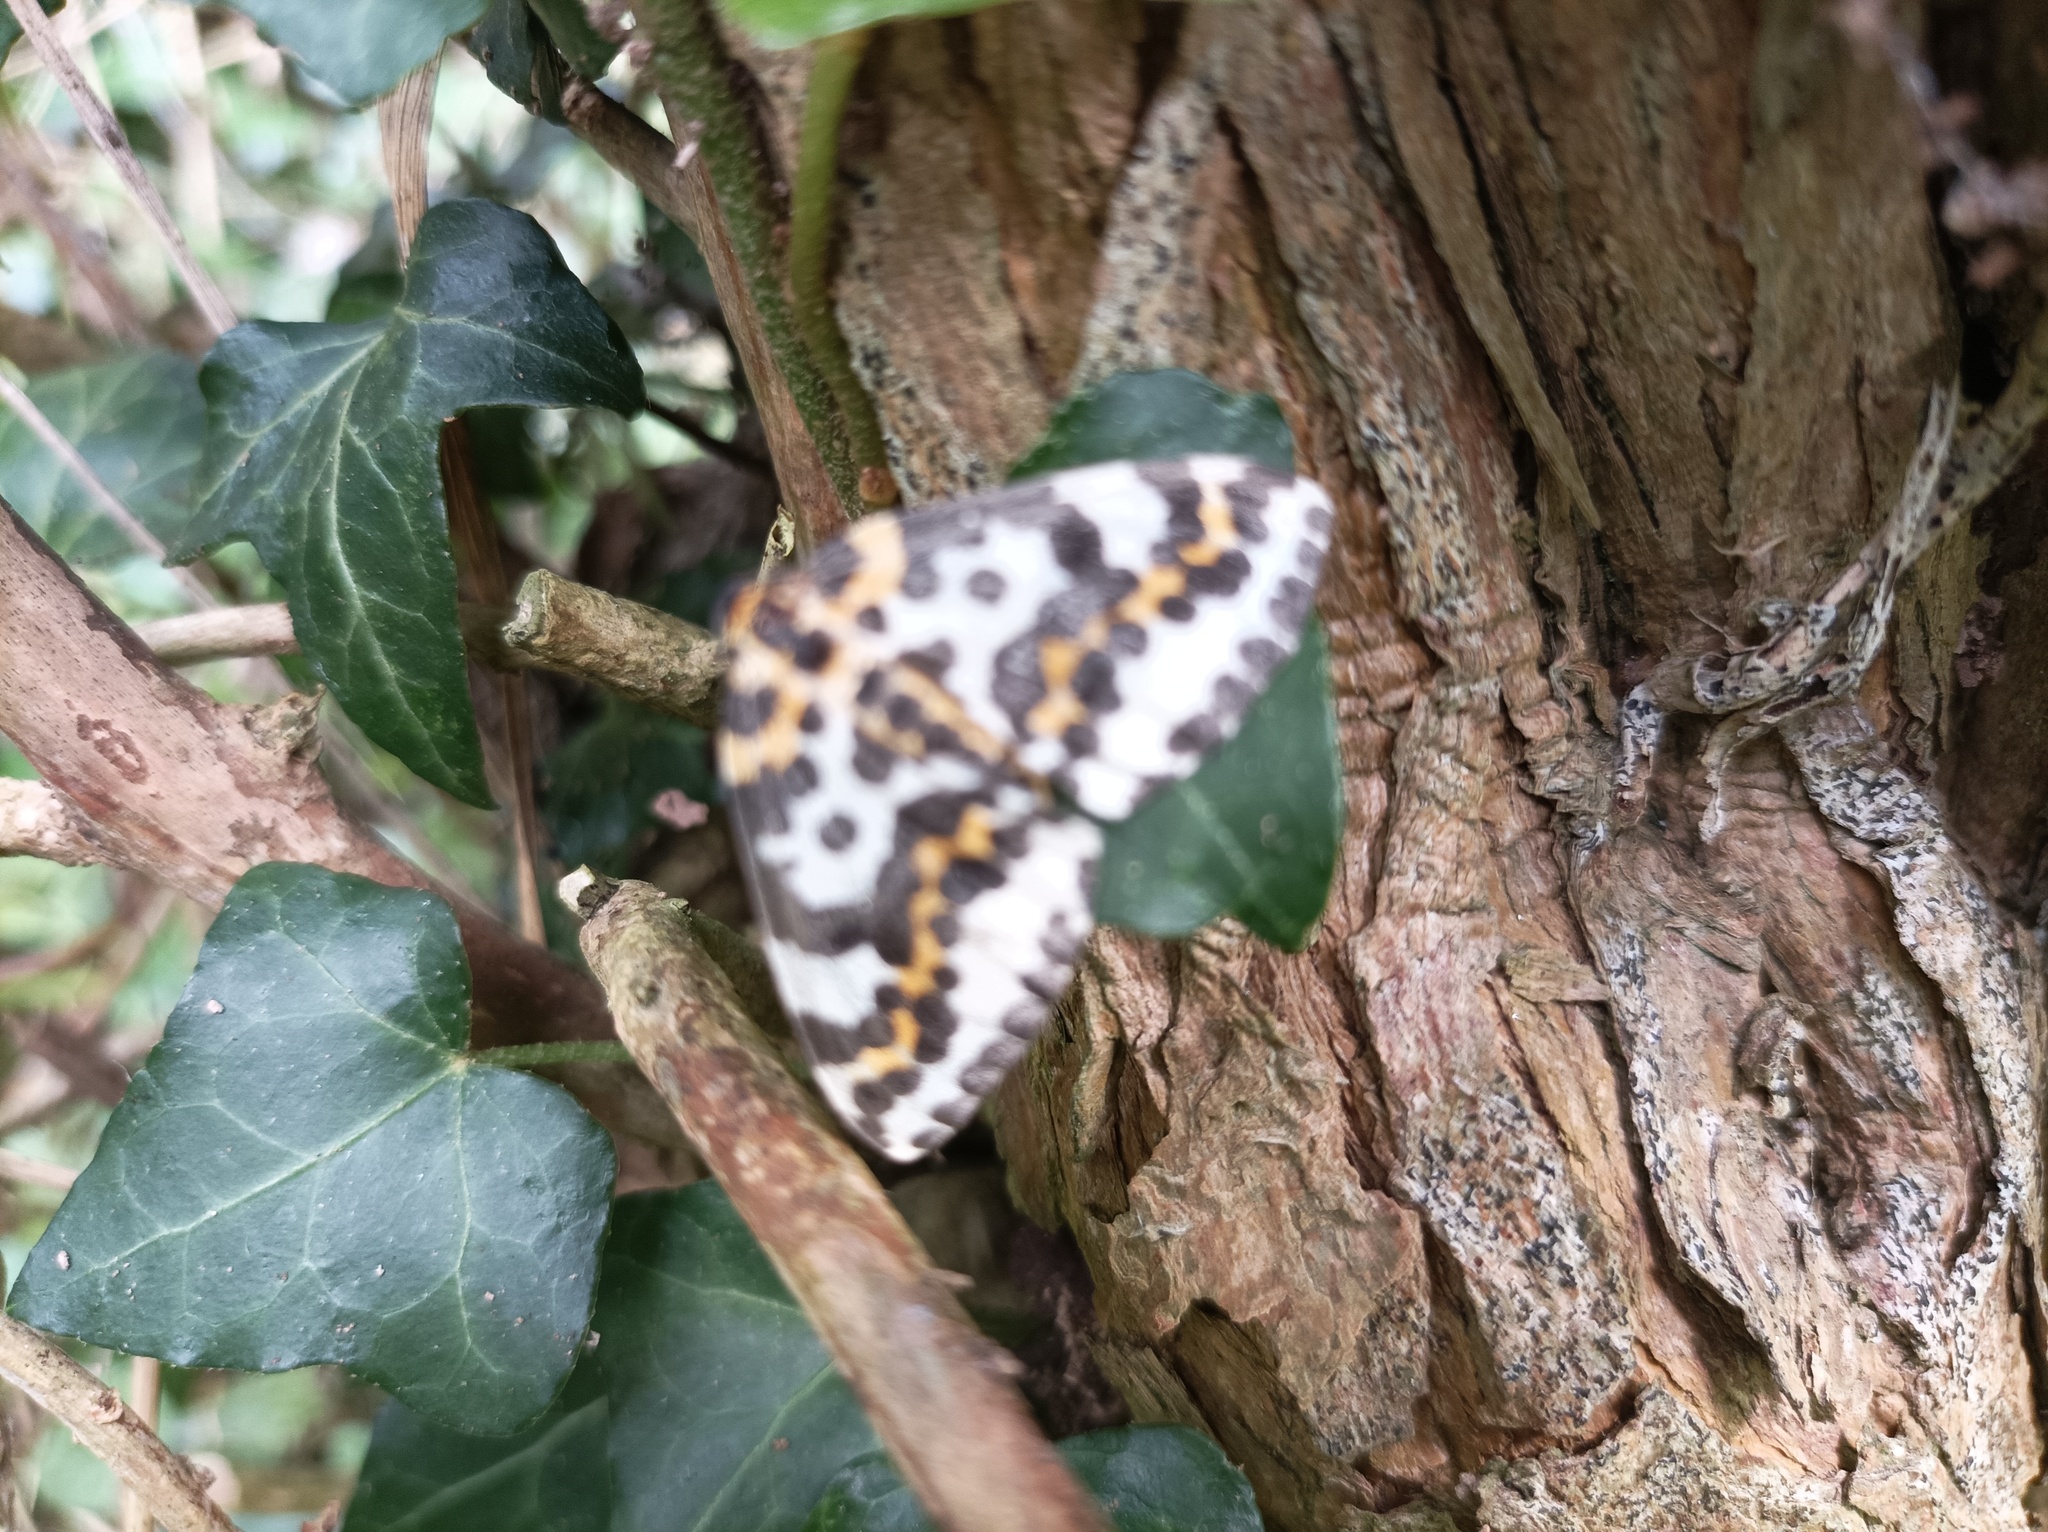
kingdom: Animalia
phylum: Arthropoda
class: Insecta
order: Lepidoptera
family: Geometridae
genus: Abraxas
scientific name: Abraxas grossulariata
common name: Magpie
